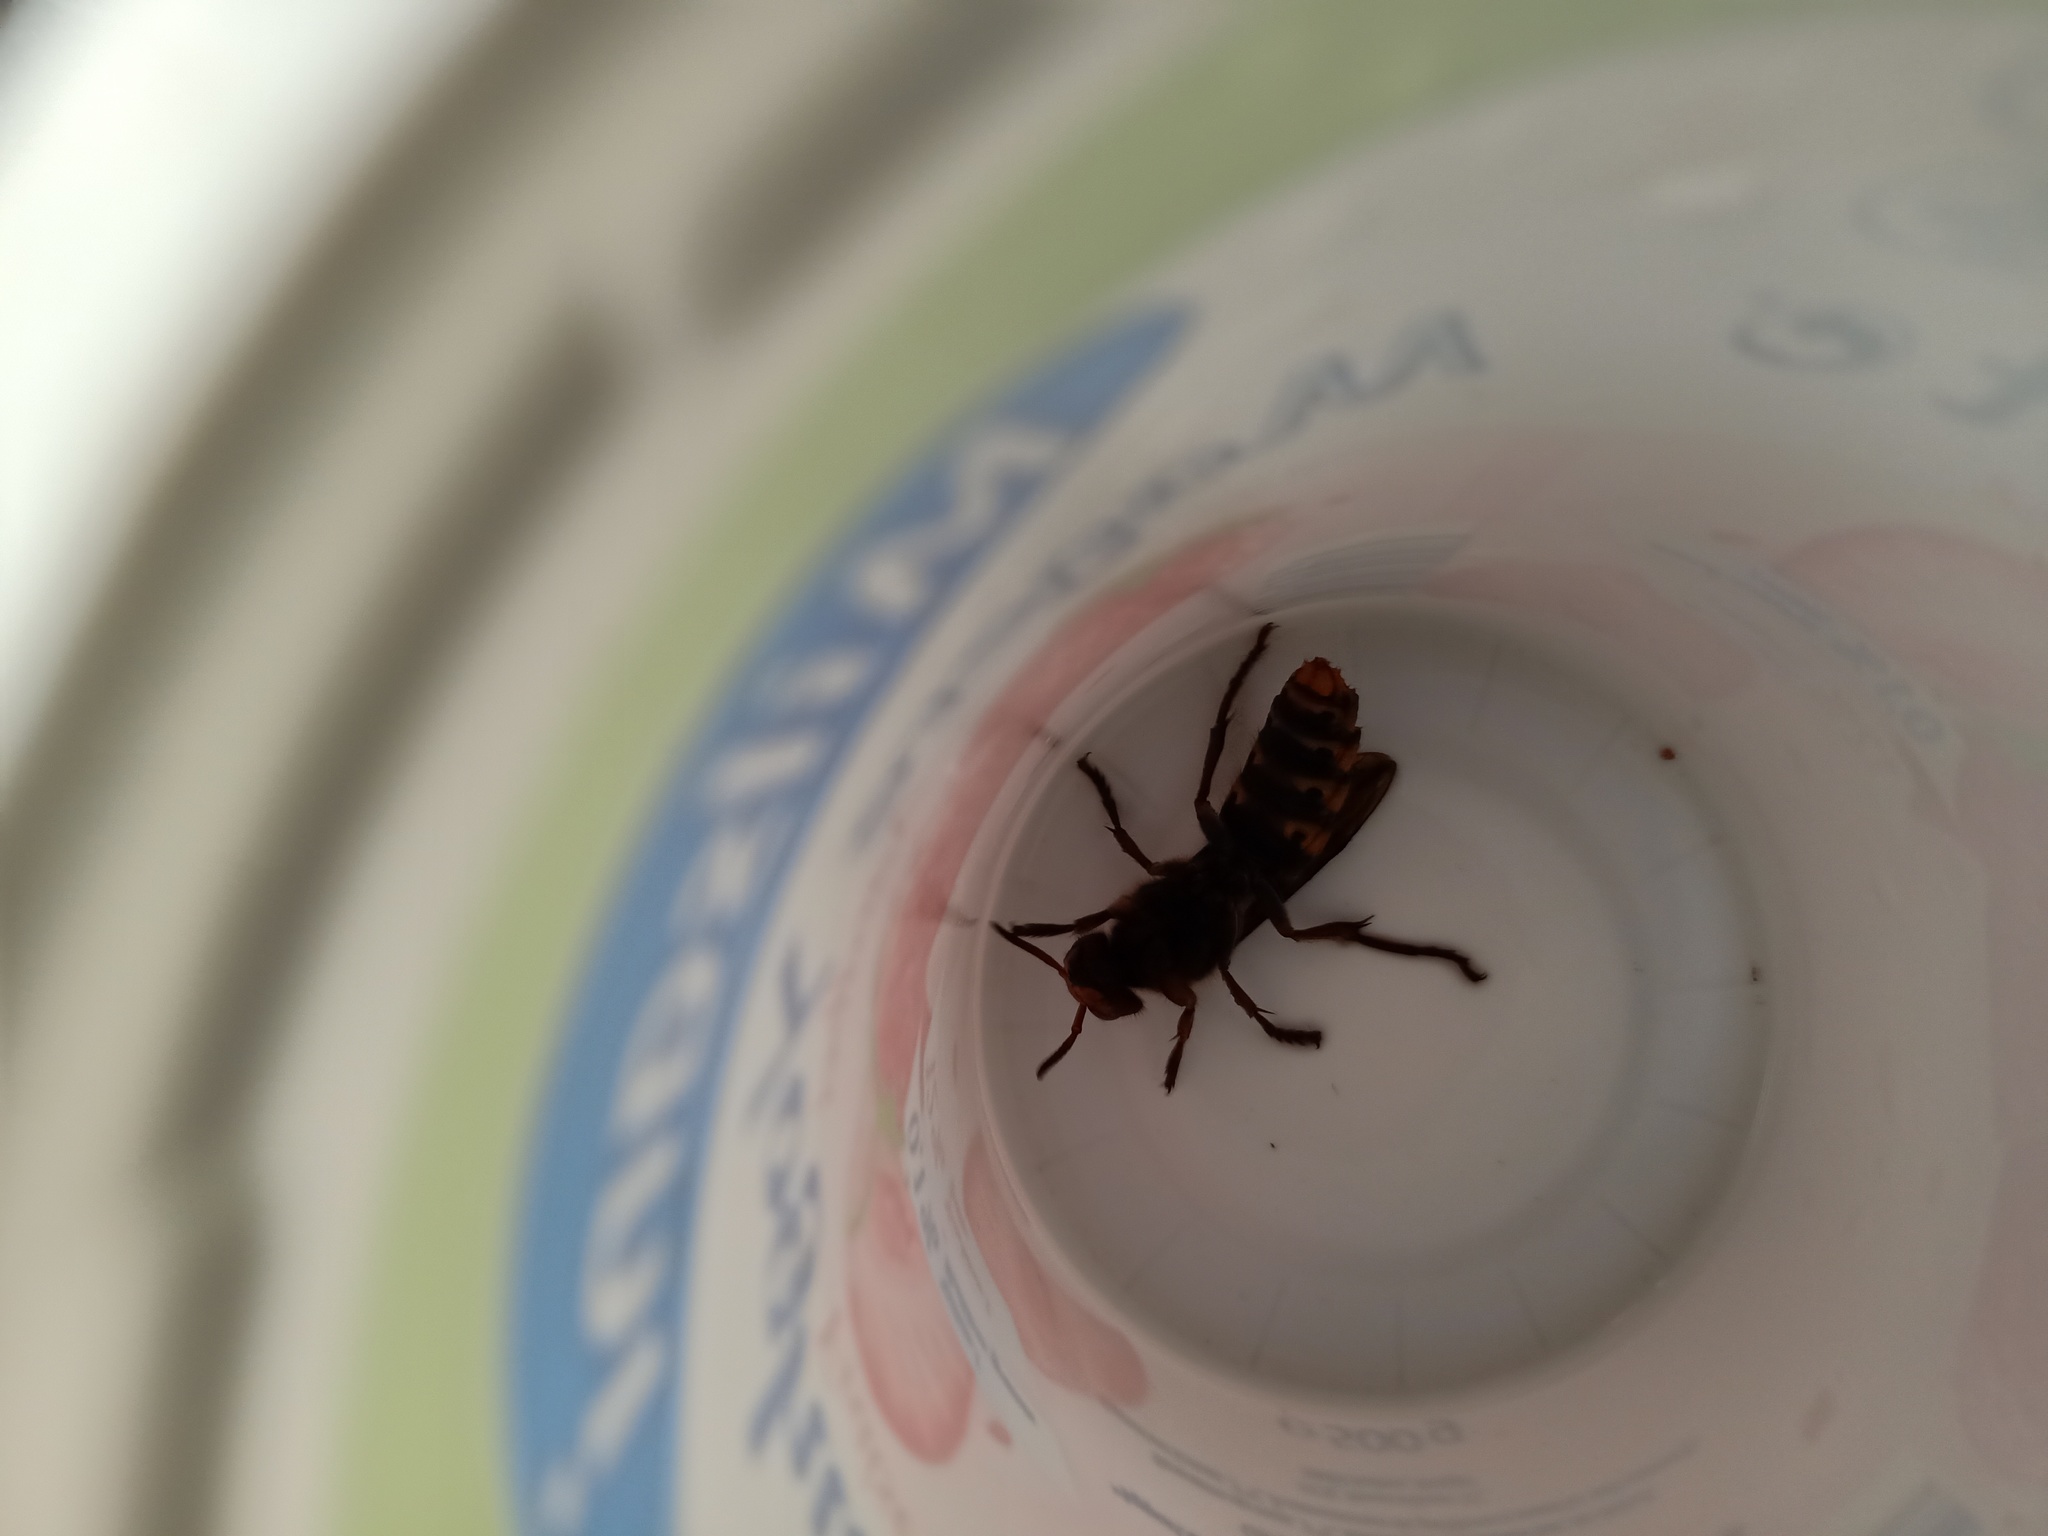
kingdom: Animalia
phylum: Arthropoda
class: Insecta
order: Hymenoptera
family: Vespidae
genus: Vespa
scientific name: Vespa crabro
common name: Hornet
